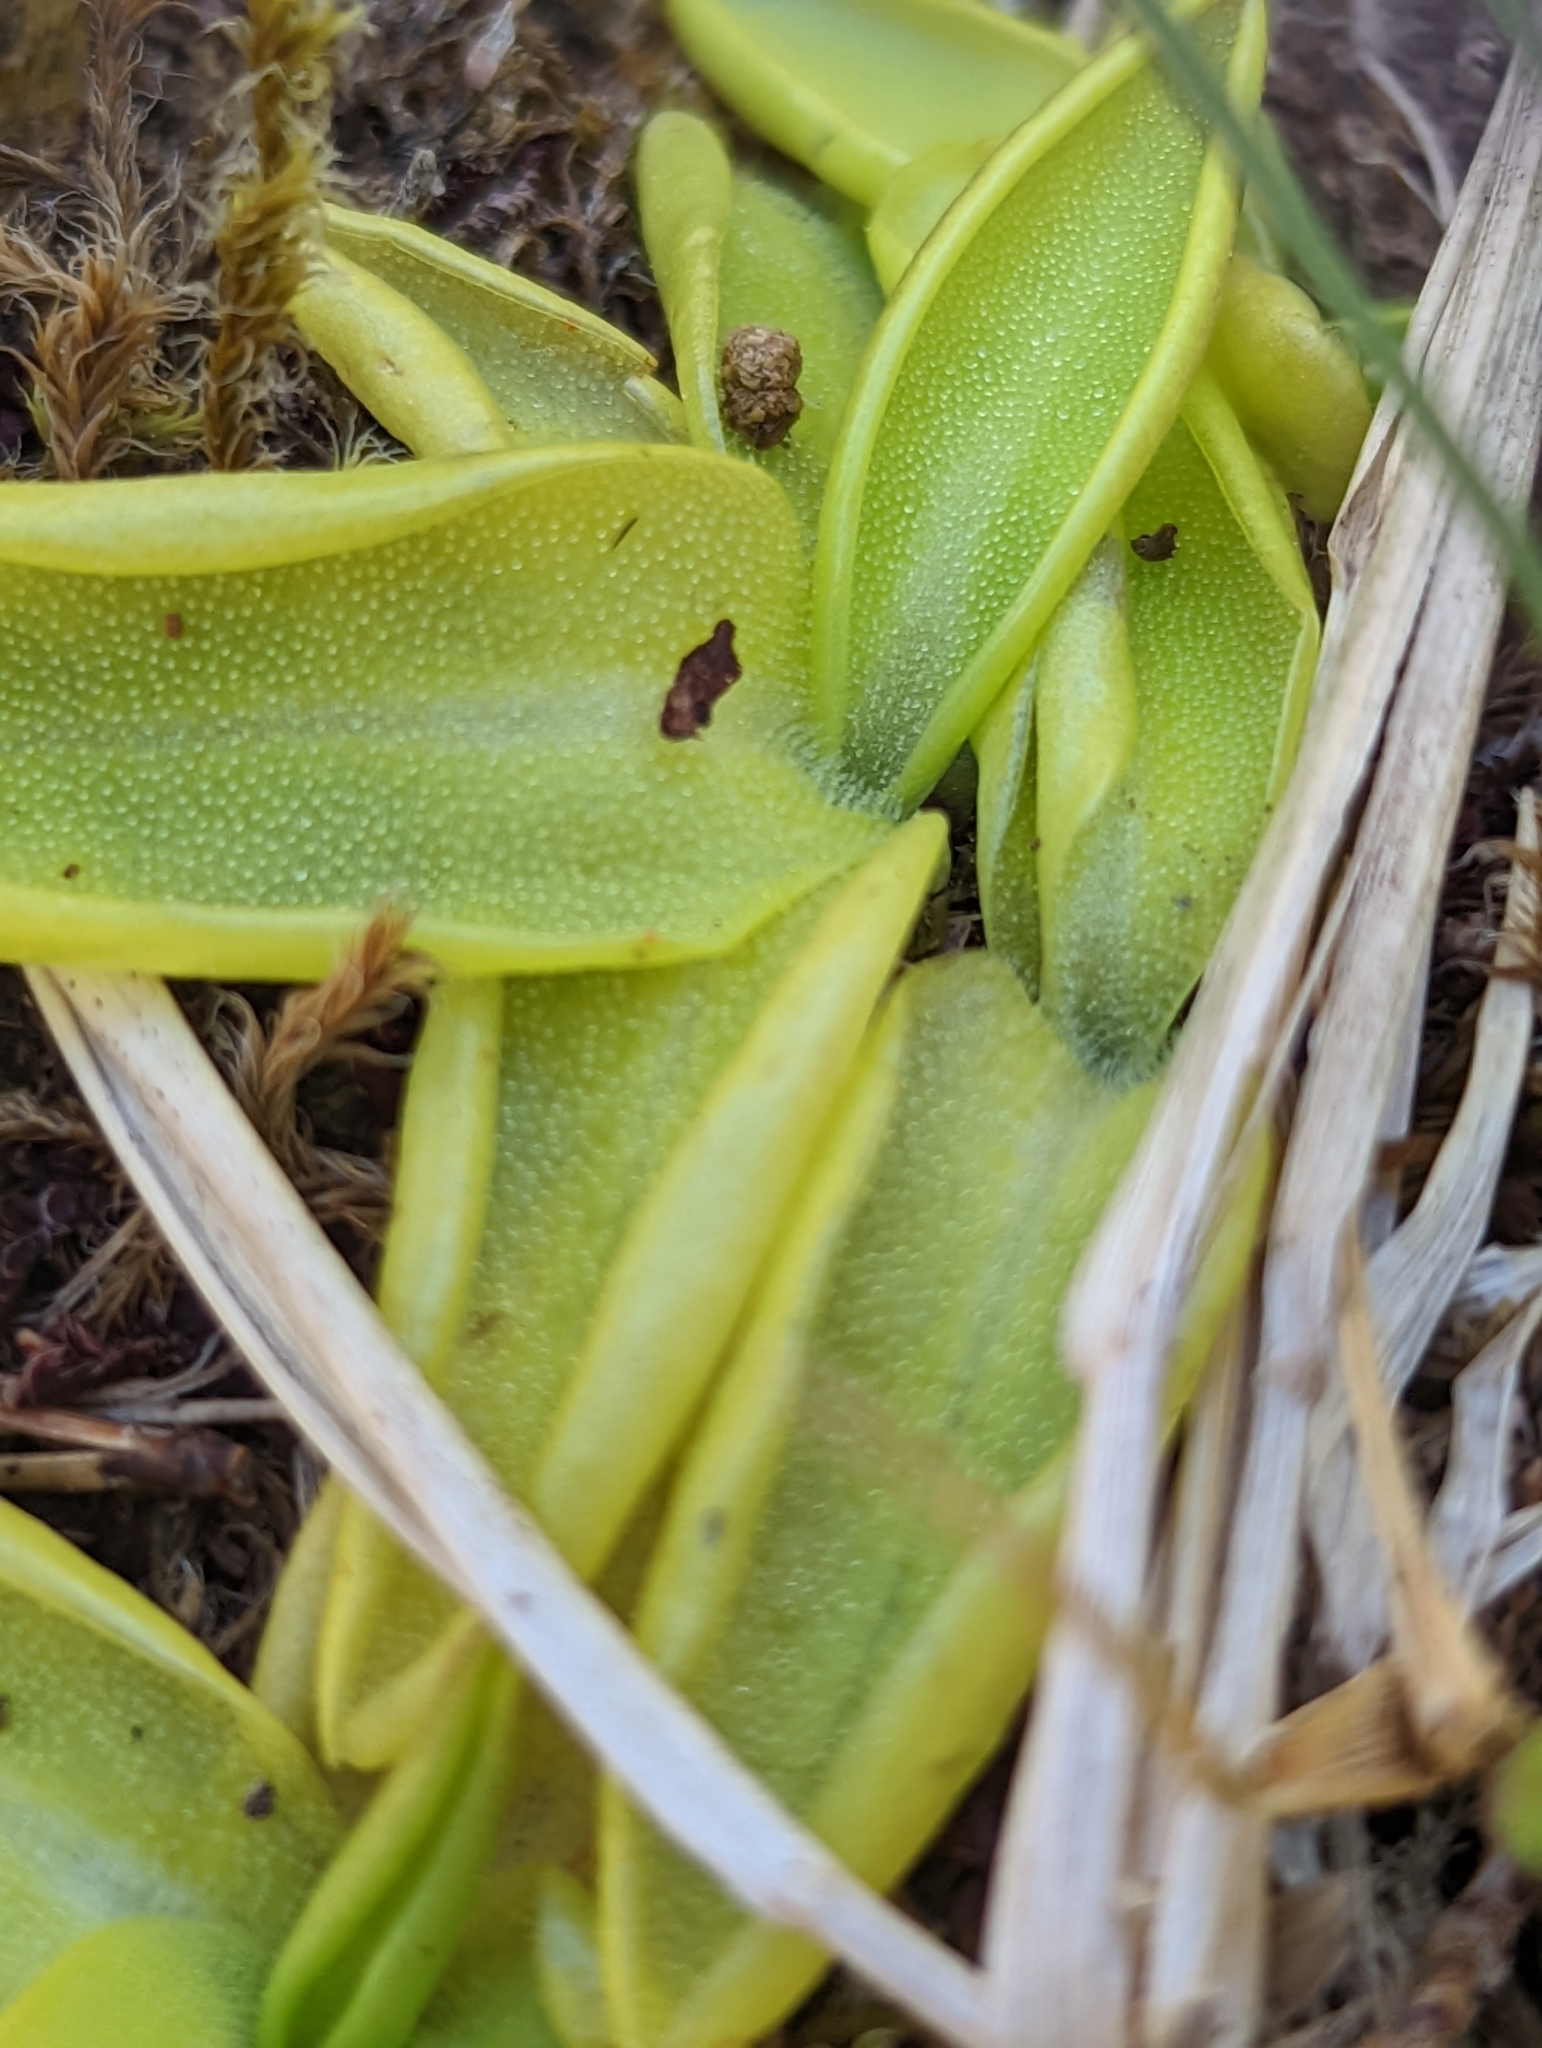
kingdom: Plantae
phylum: Tracheophyta
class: Magnoliopsida
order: Lamiales
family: Lentibulariaceae
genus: Pinguicula
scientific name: Pinguicula vulgaris
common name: Common butterwort
